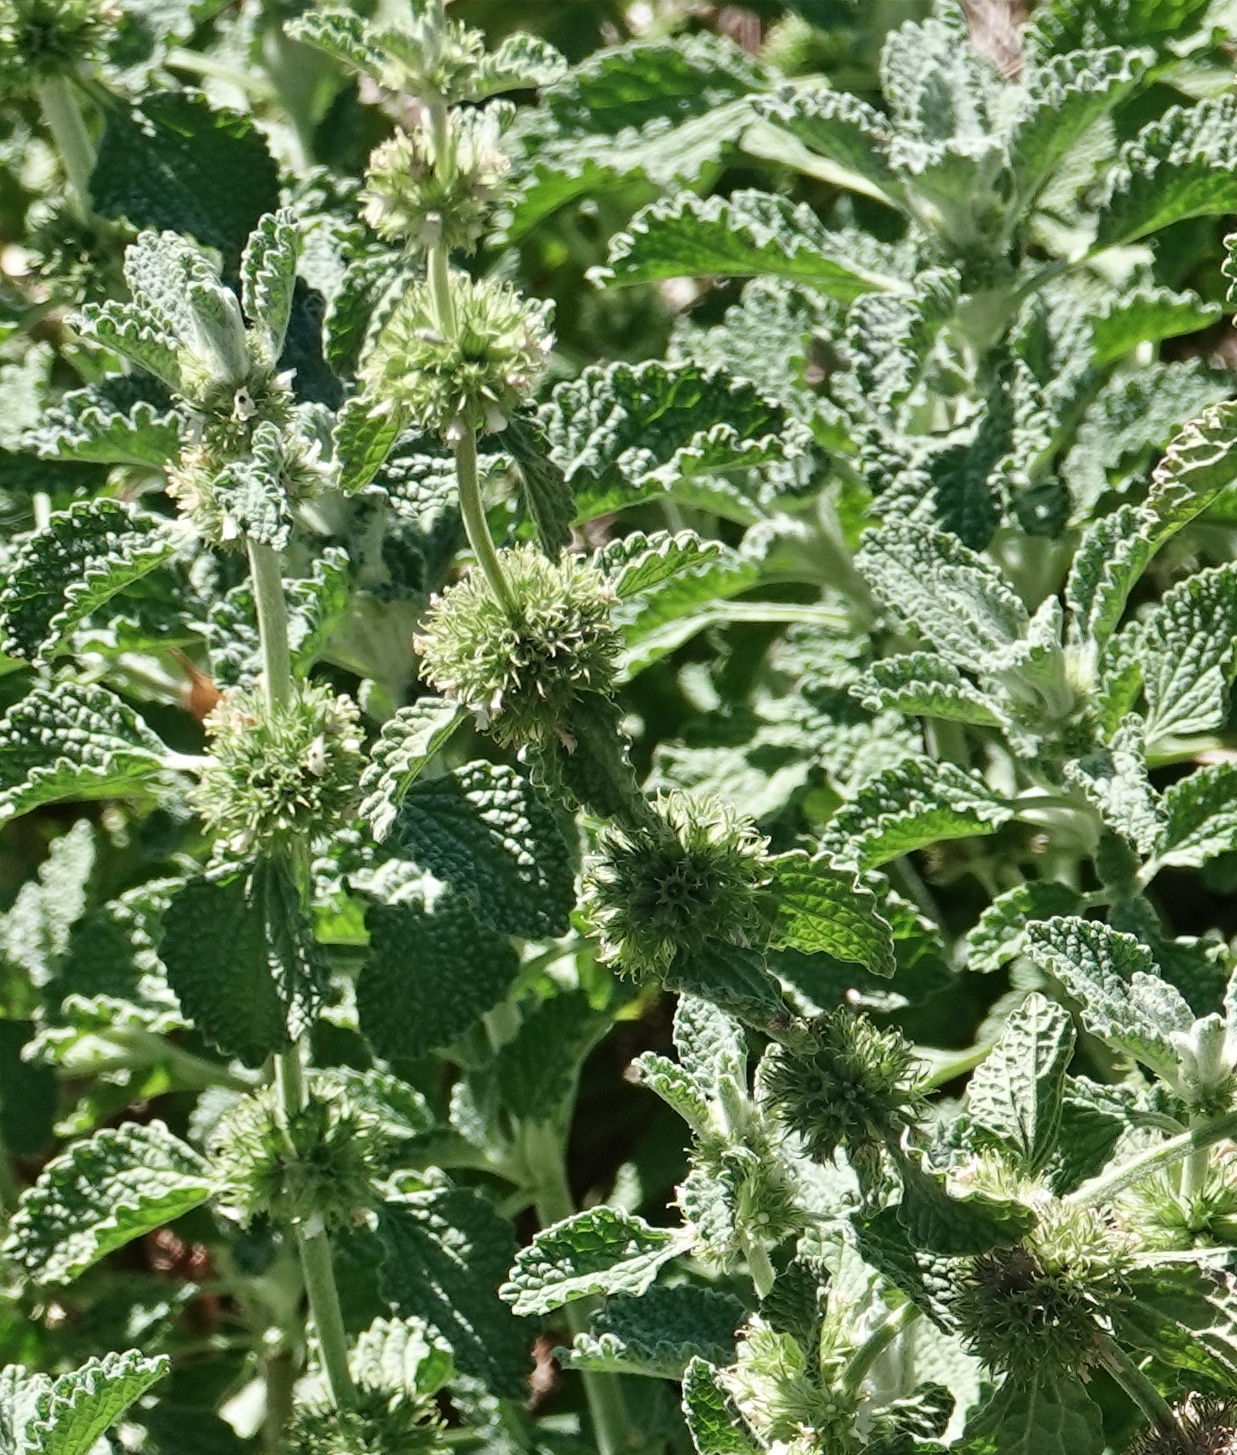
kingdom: Plantae
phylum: Tracheophyta
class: Magnoliopsida
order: Lamiales
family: Lamiaceae
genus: Marrubium
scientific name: Marrubium vulgare
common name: Horehound
